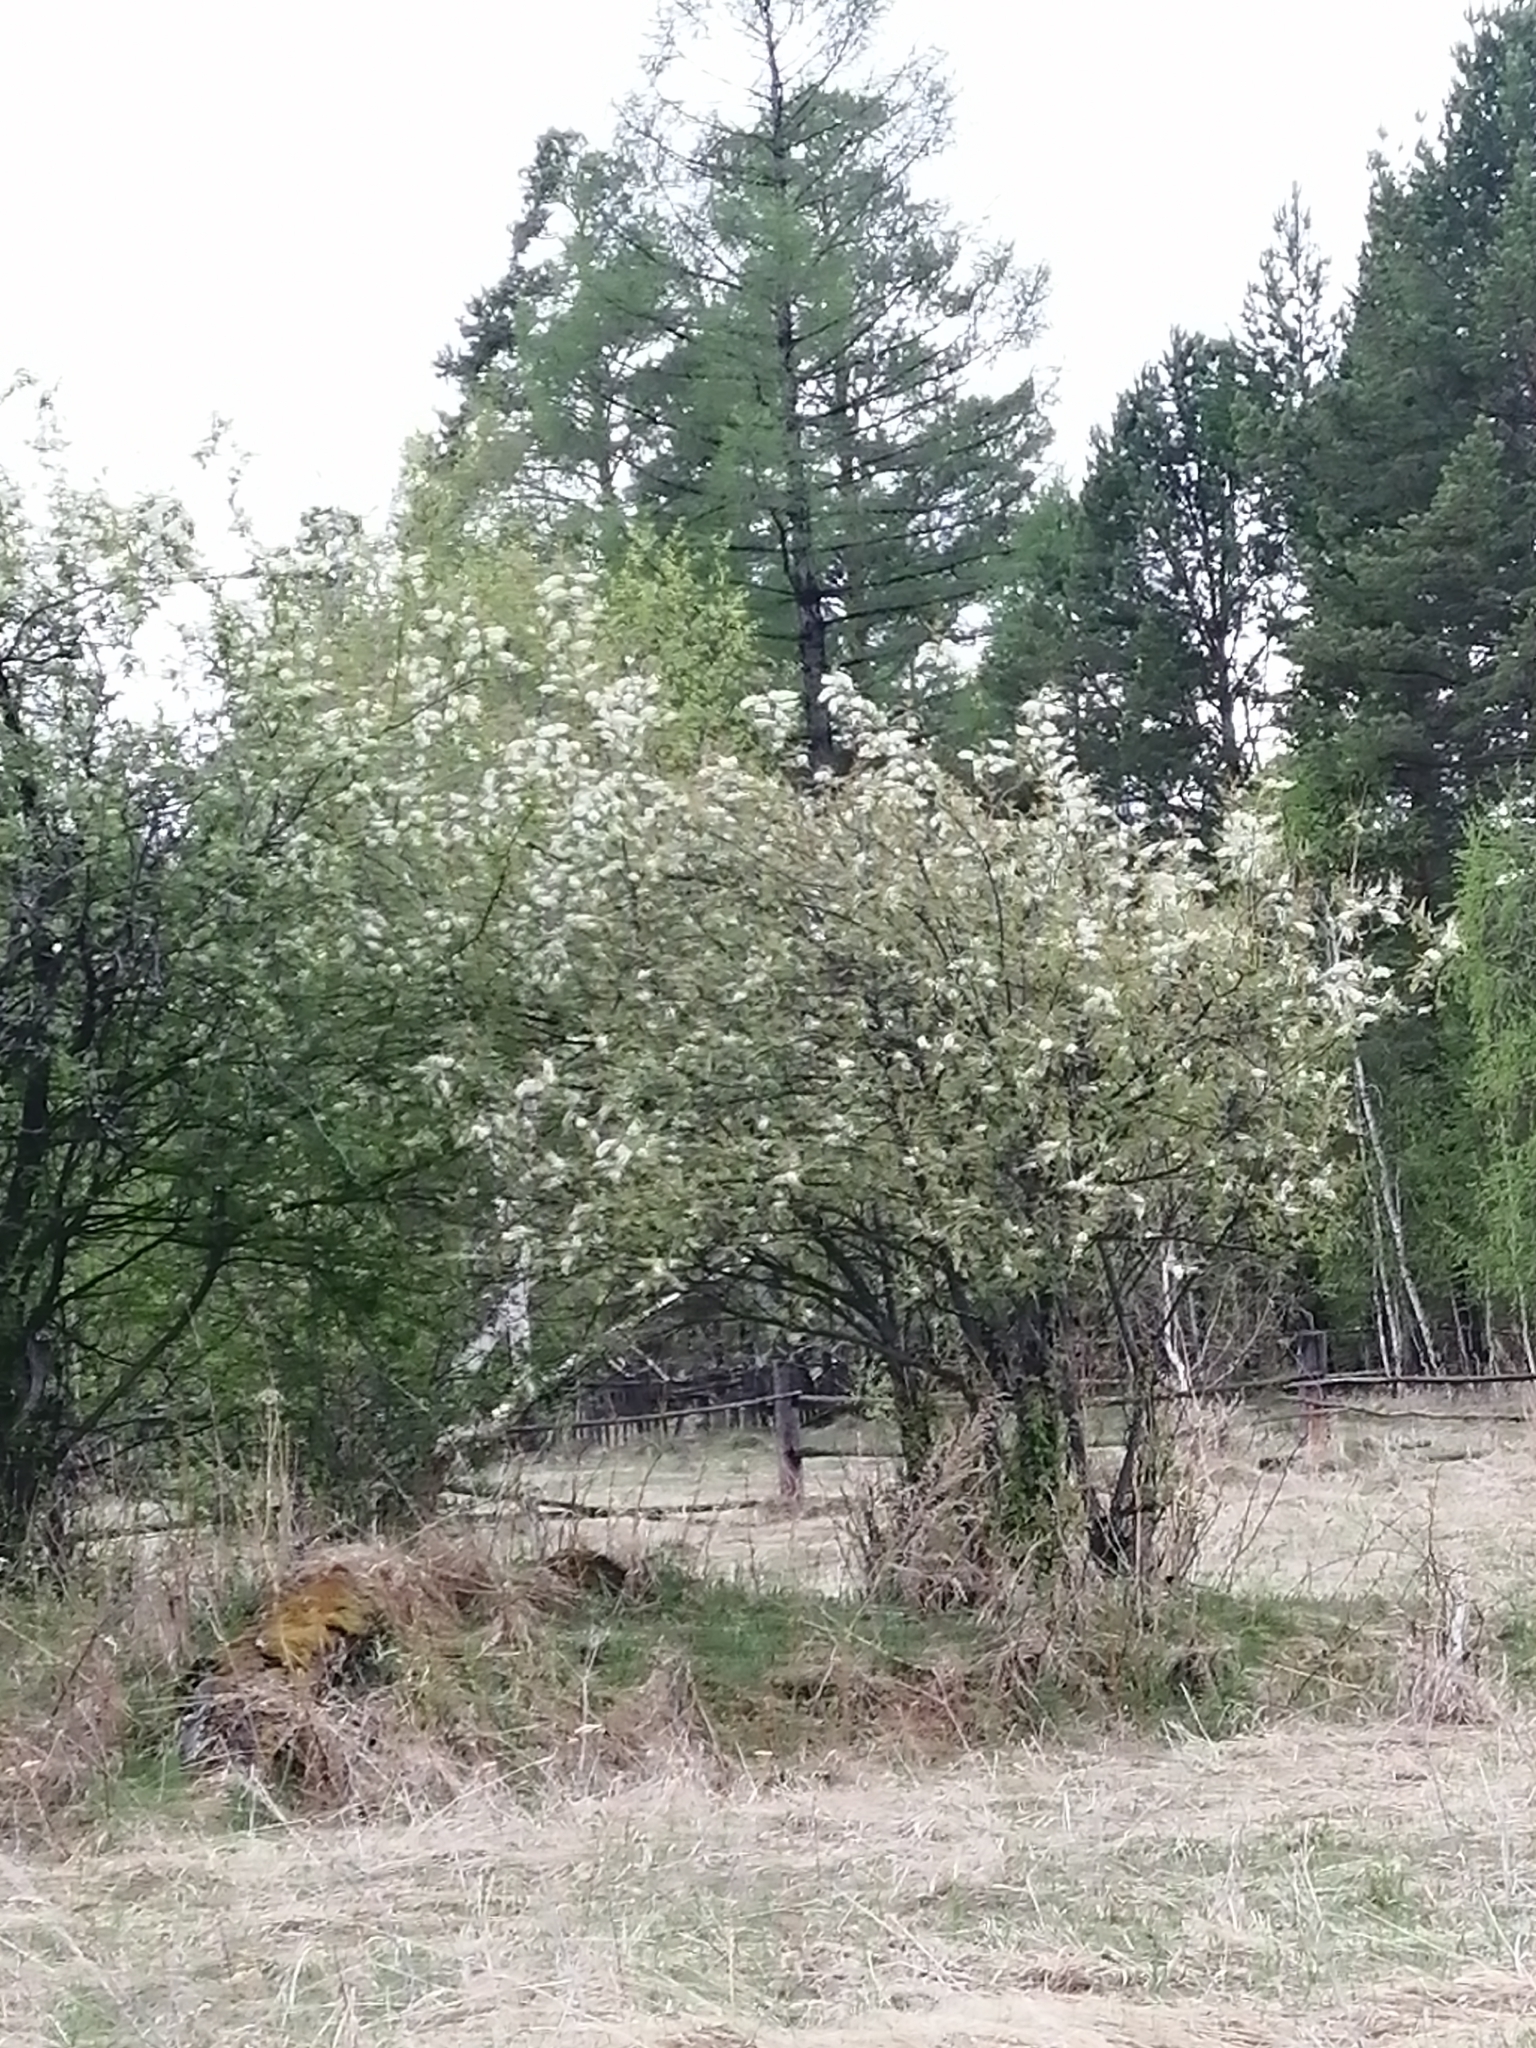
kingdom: Plantae
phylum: Tracheophyta
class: Magnoliopsida
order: Rosales
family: Rosaceae
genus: Prunus
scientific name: Prunus padus
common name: Bird cherry
